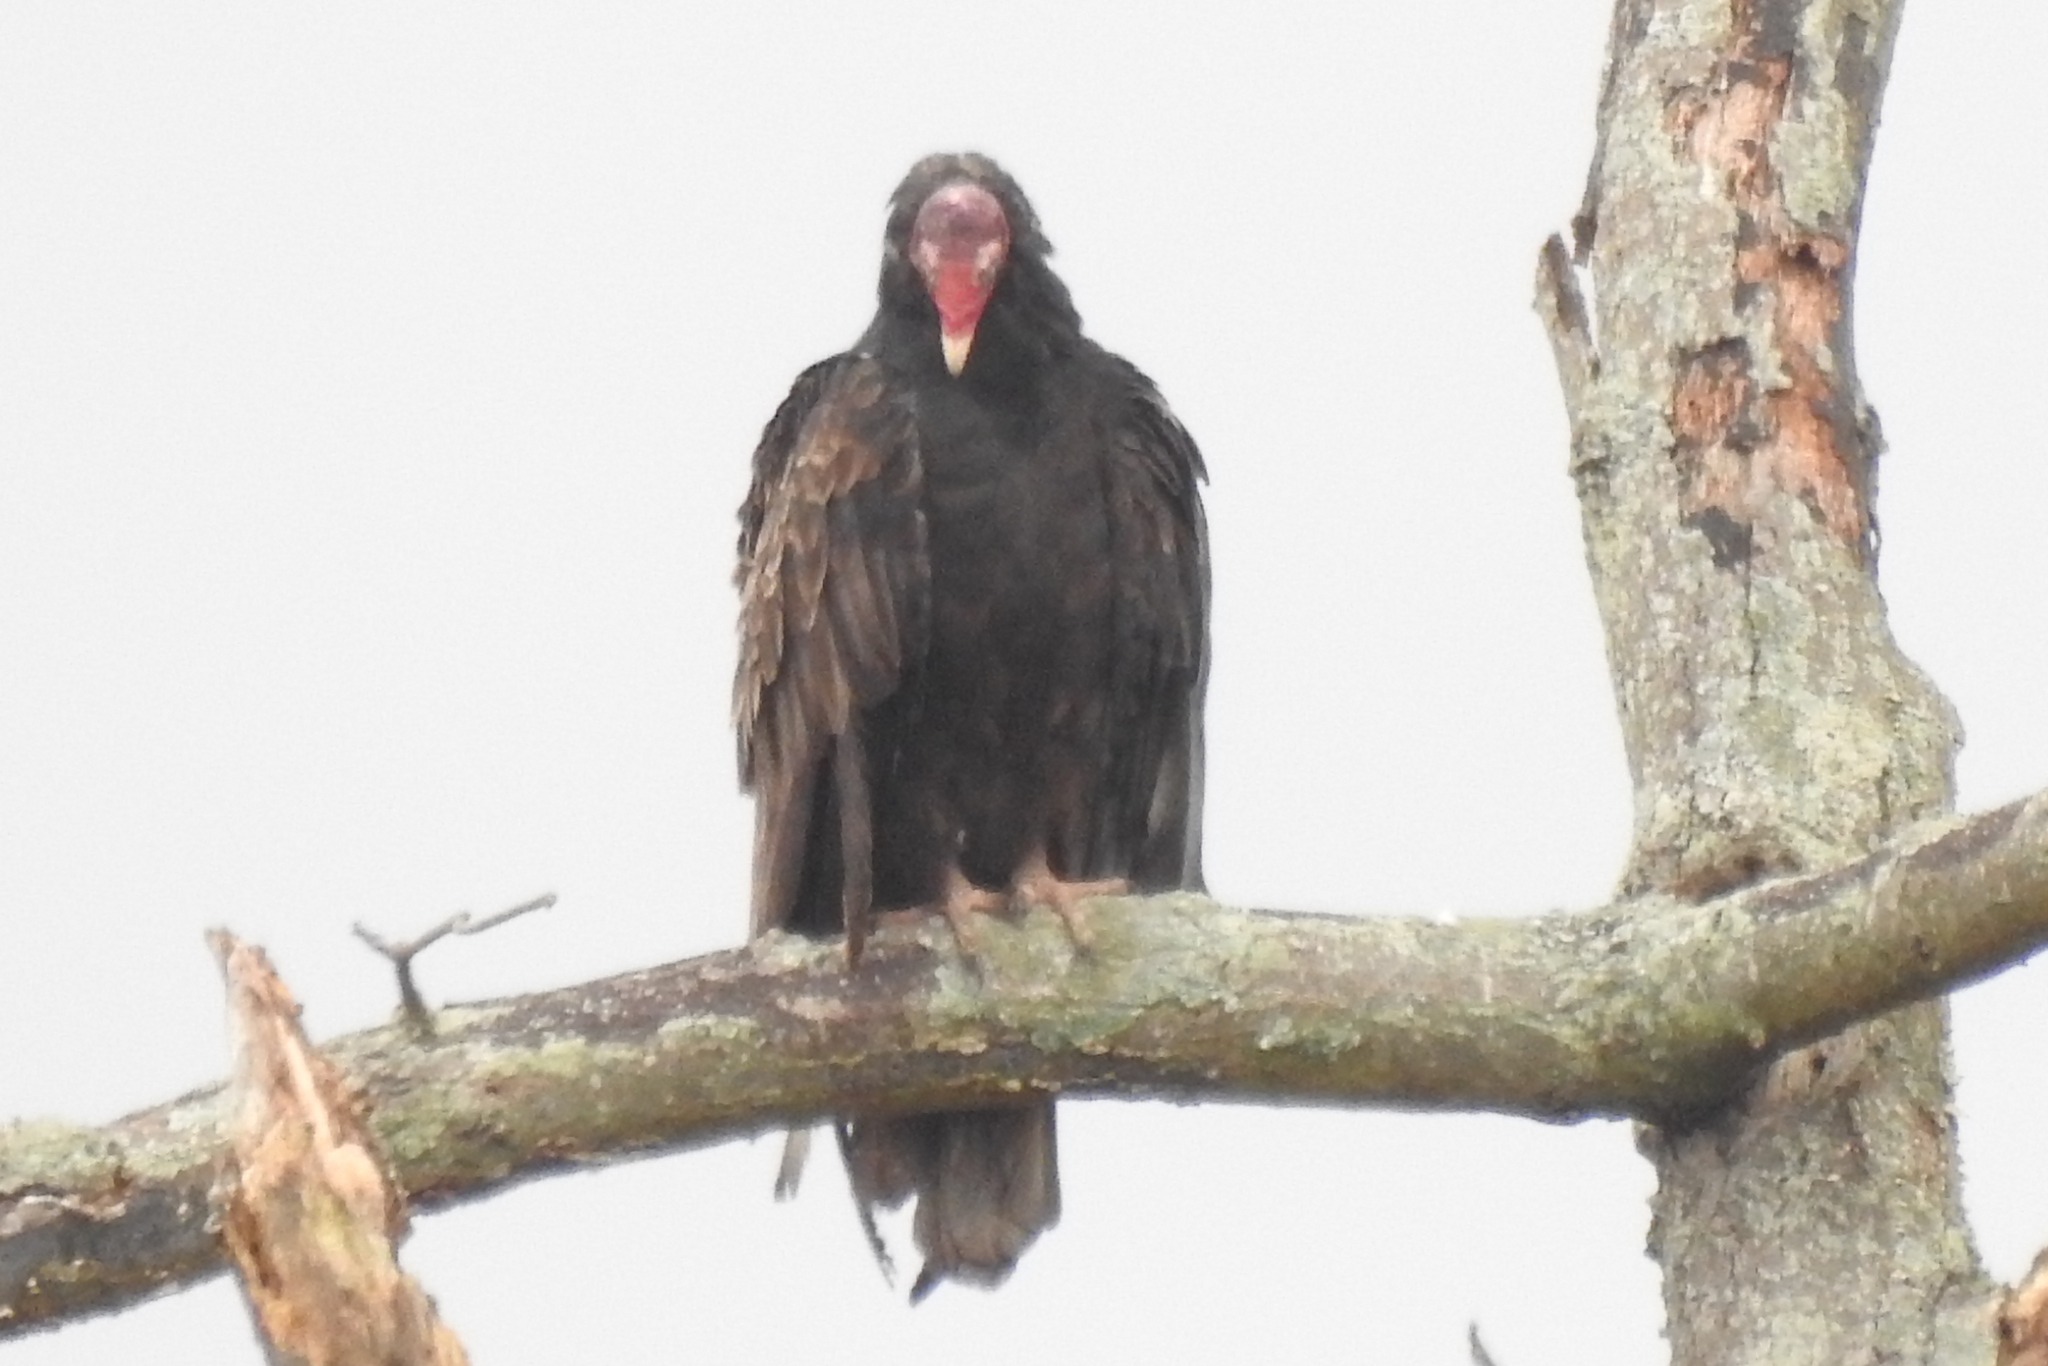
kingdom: Animalia
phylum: Chordata
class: Aves
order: Accipitriformes
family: Cathartidae
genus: Cathartes
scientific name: Cathartes aura
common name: Turkey vulture
